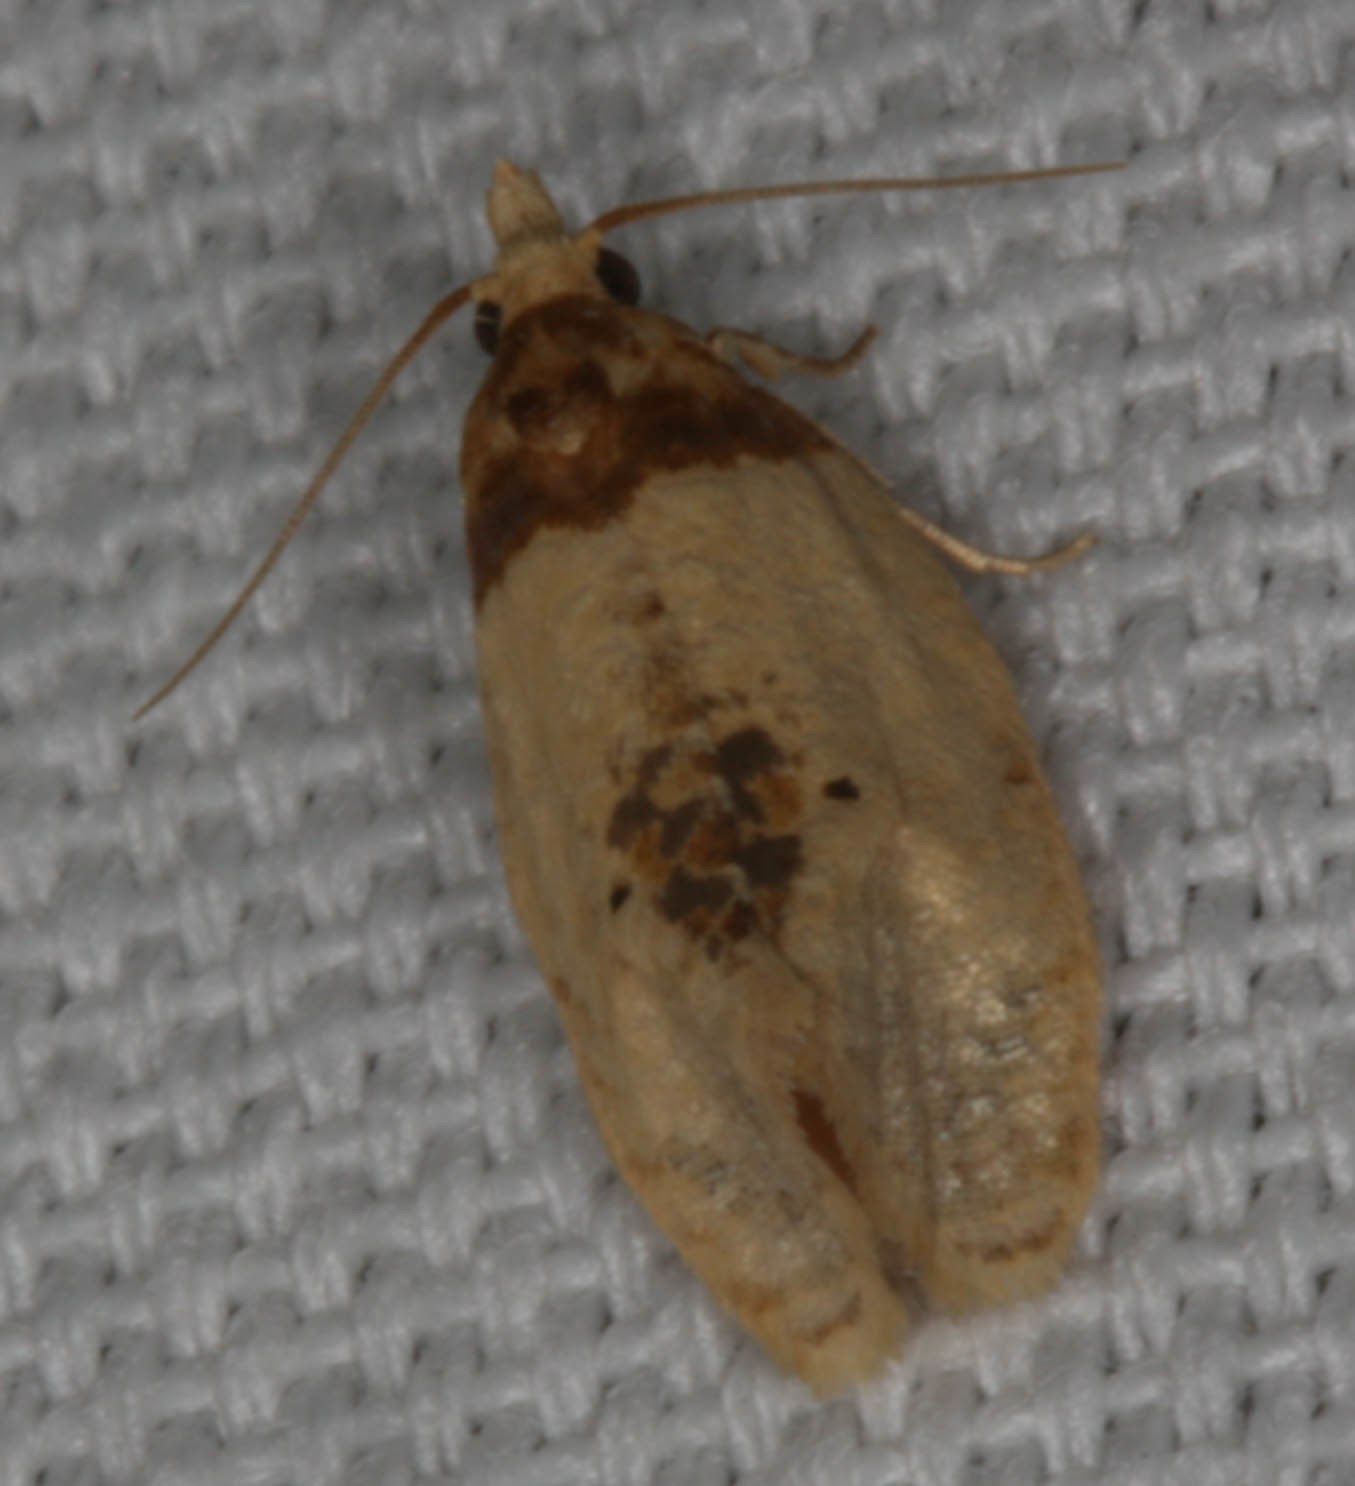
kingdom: Animalia
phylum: Arthropoda
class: Insecta
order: Lepidoptera
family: Tortricidae
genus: Henricus
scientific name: Henricus umbrabasana
